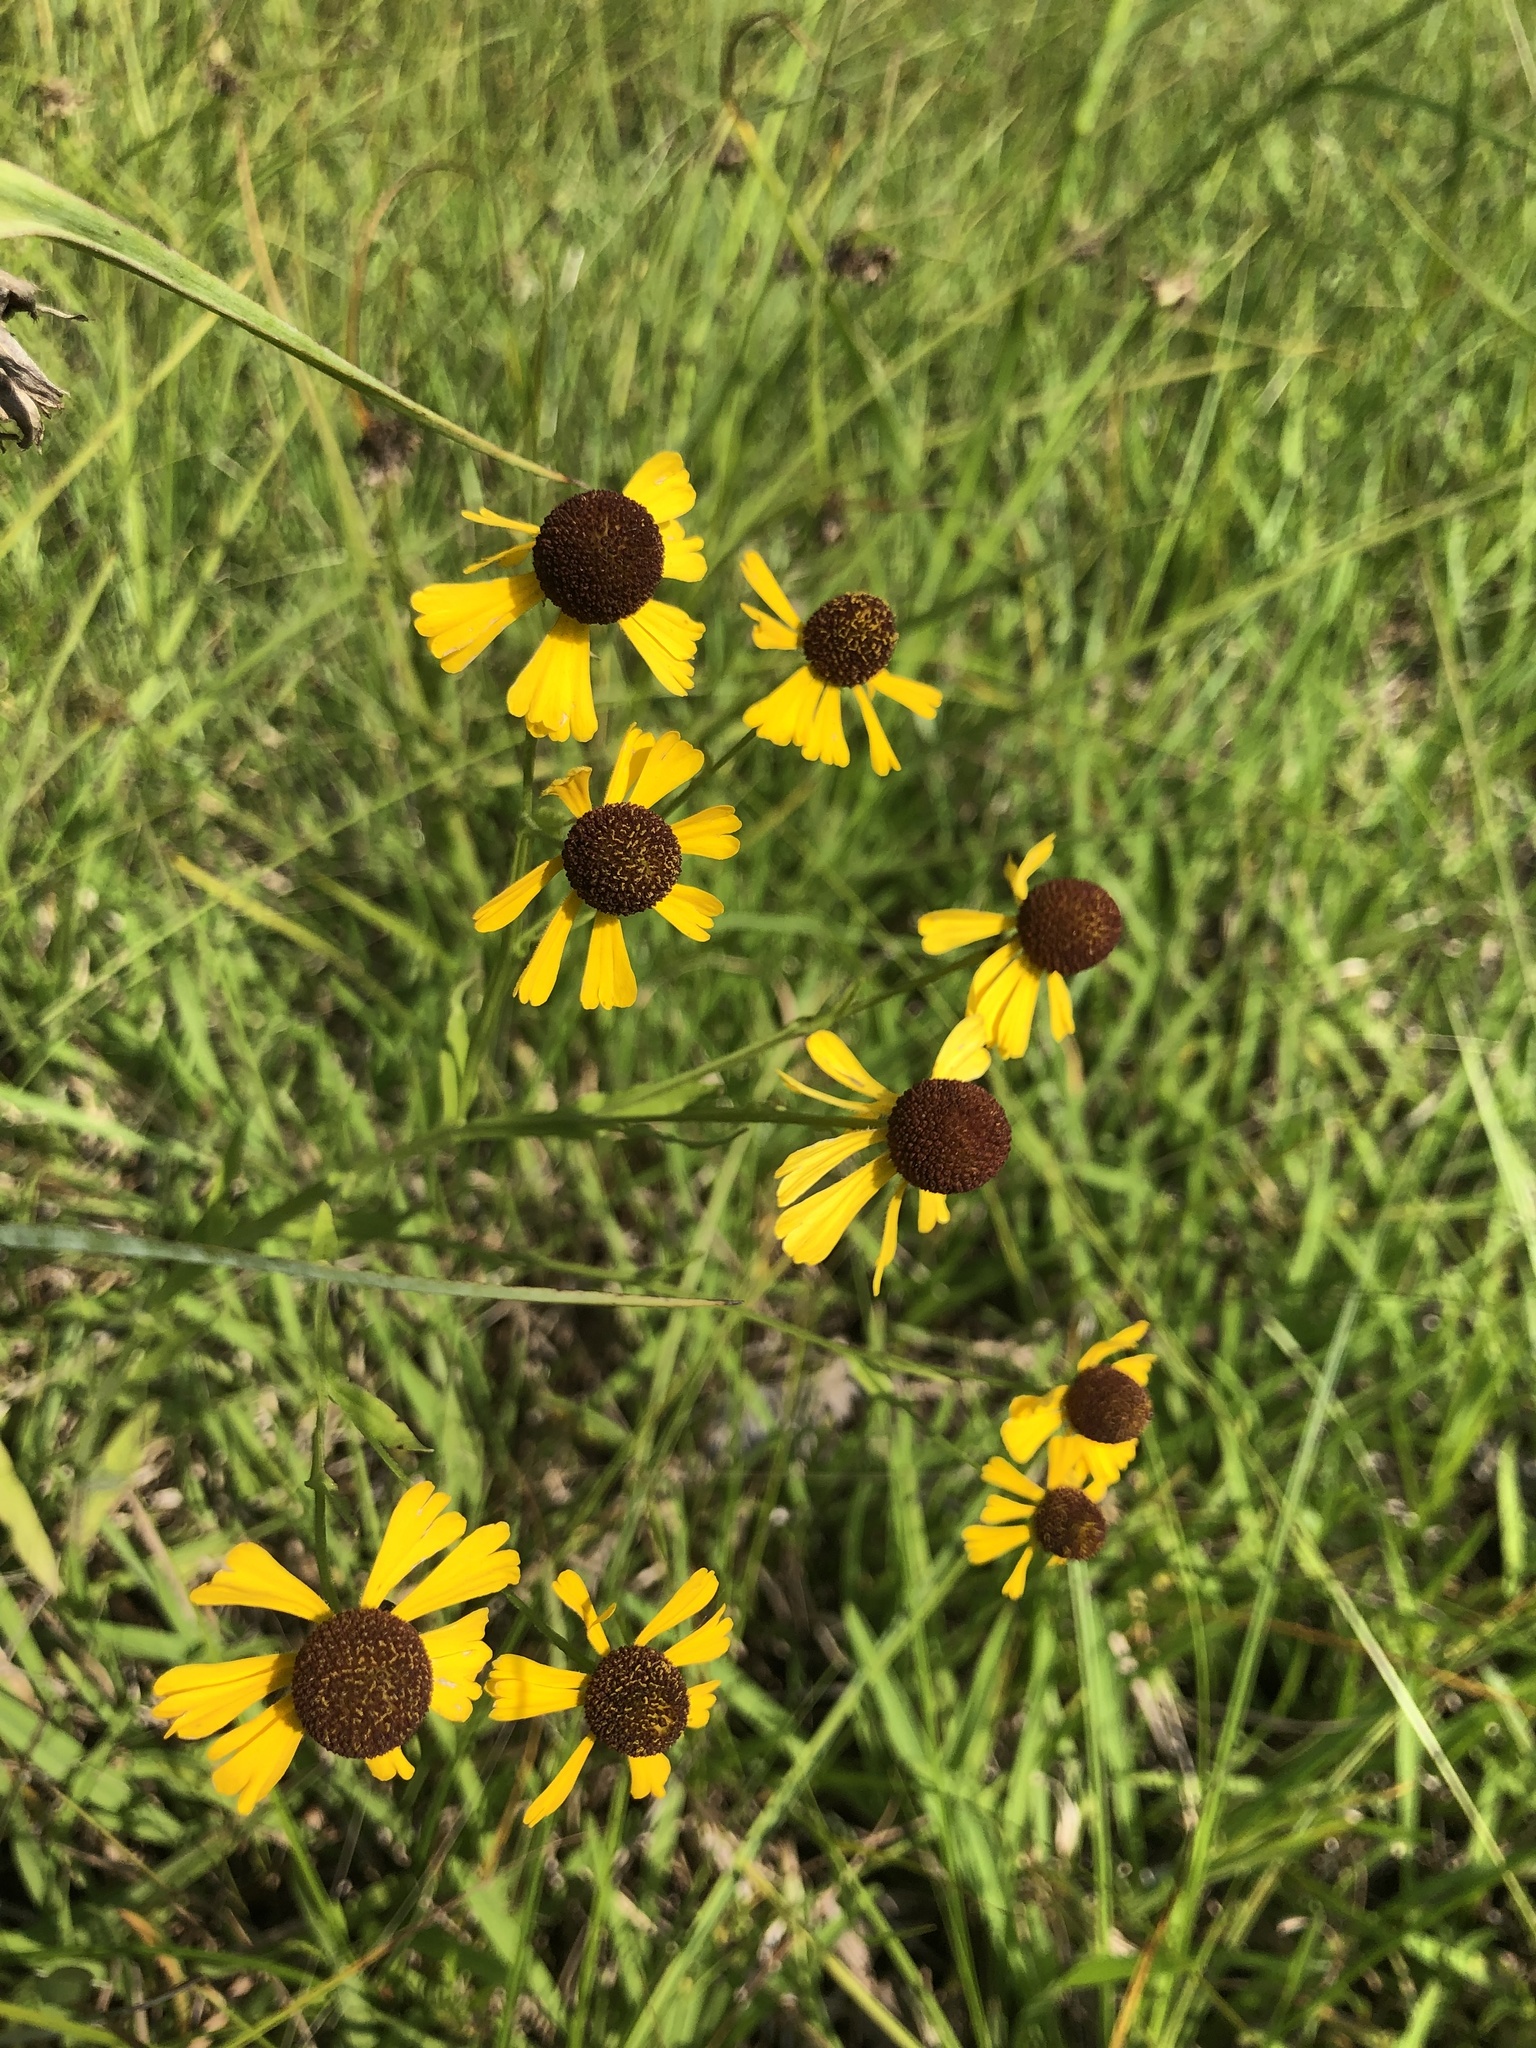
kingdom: Plantae
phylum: Tracheophyta
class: Magnoliopsida
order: Asterales
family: Asteraceae
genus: Rudbeckia
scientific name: Rudbeckia hirta
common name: Black-eyed-susan
